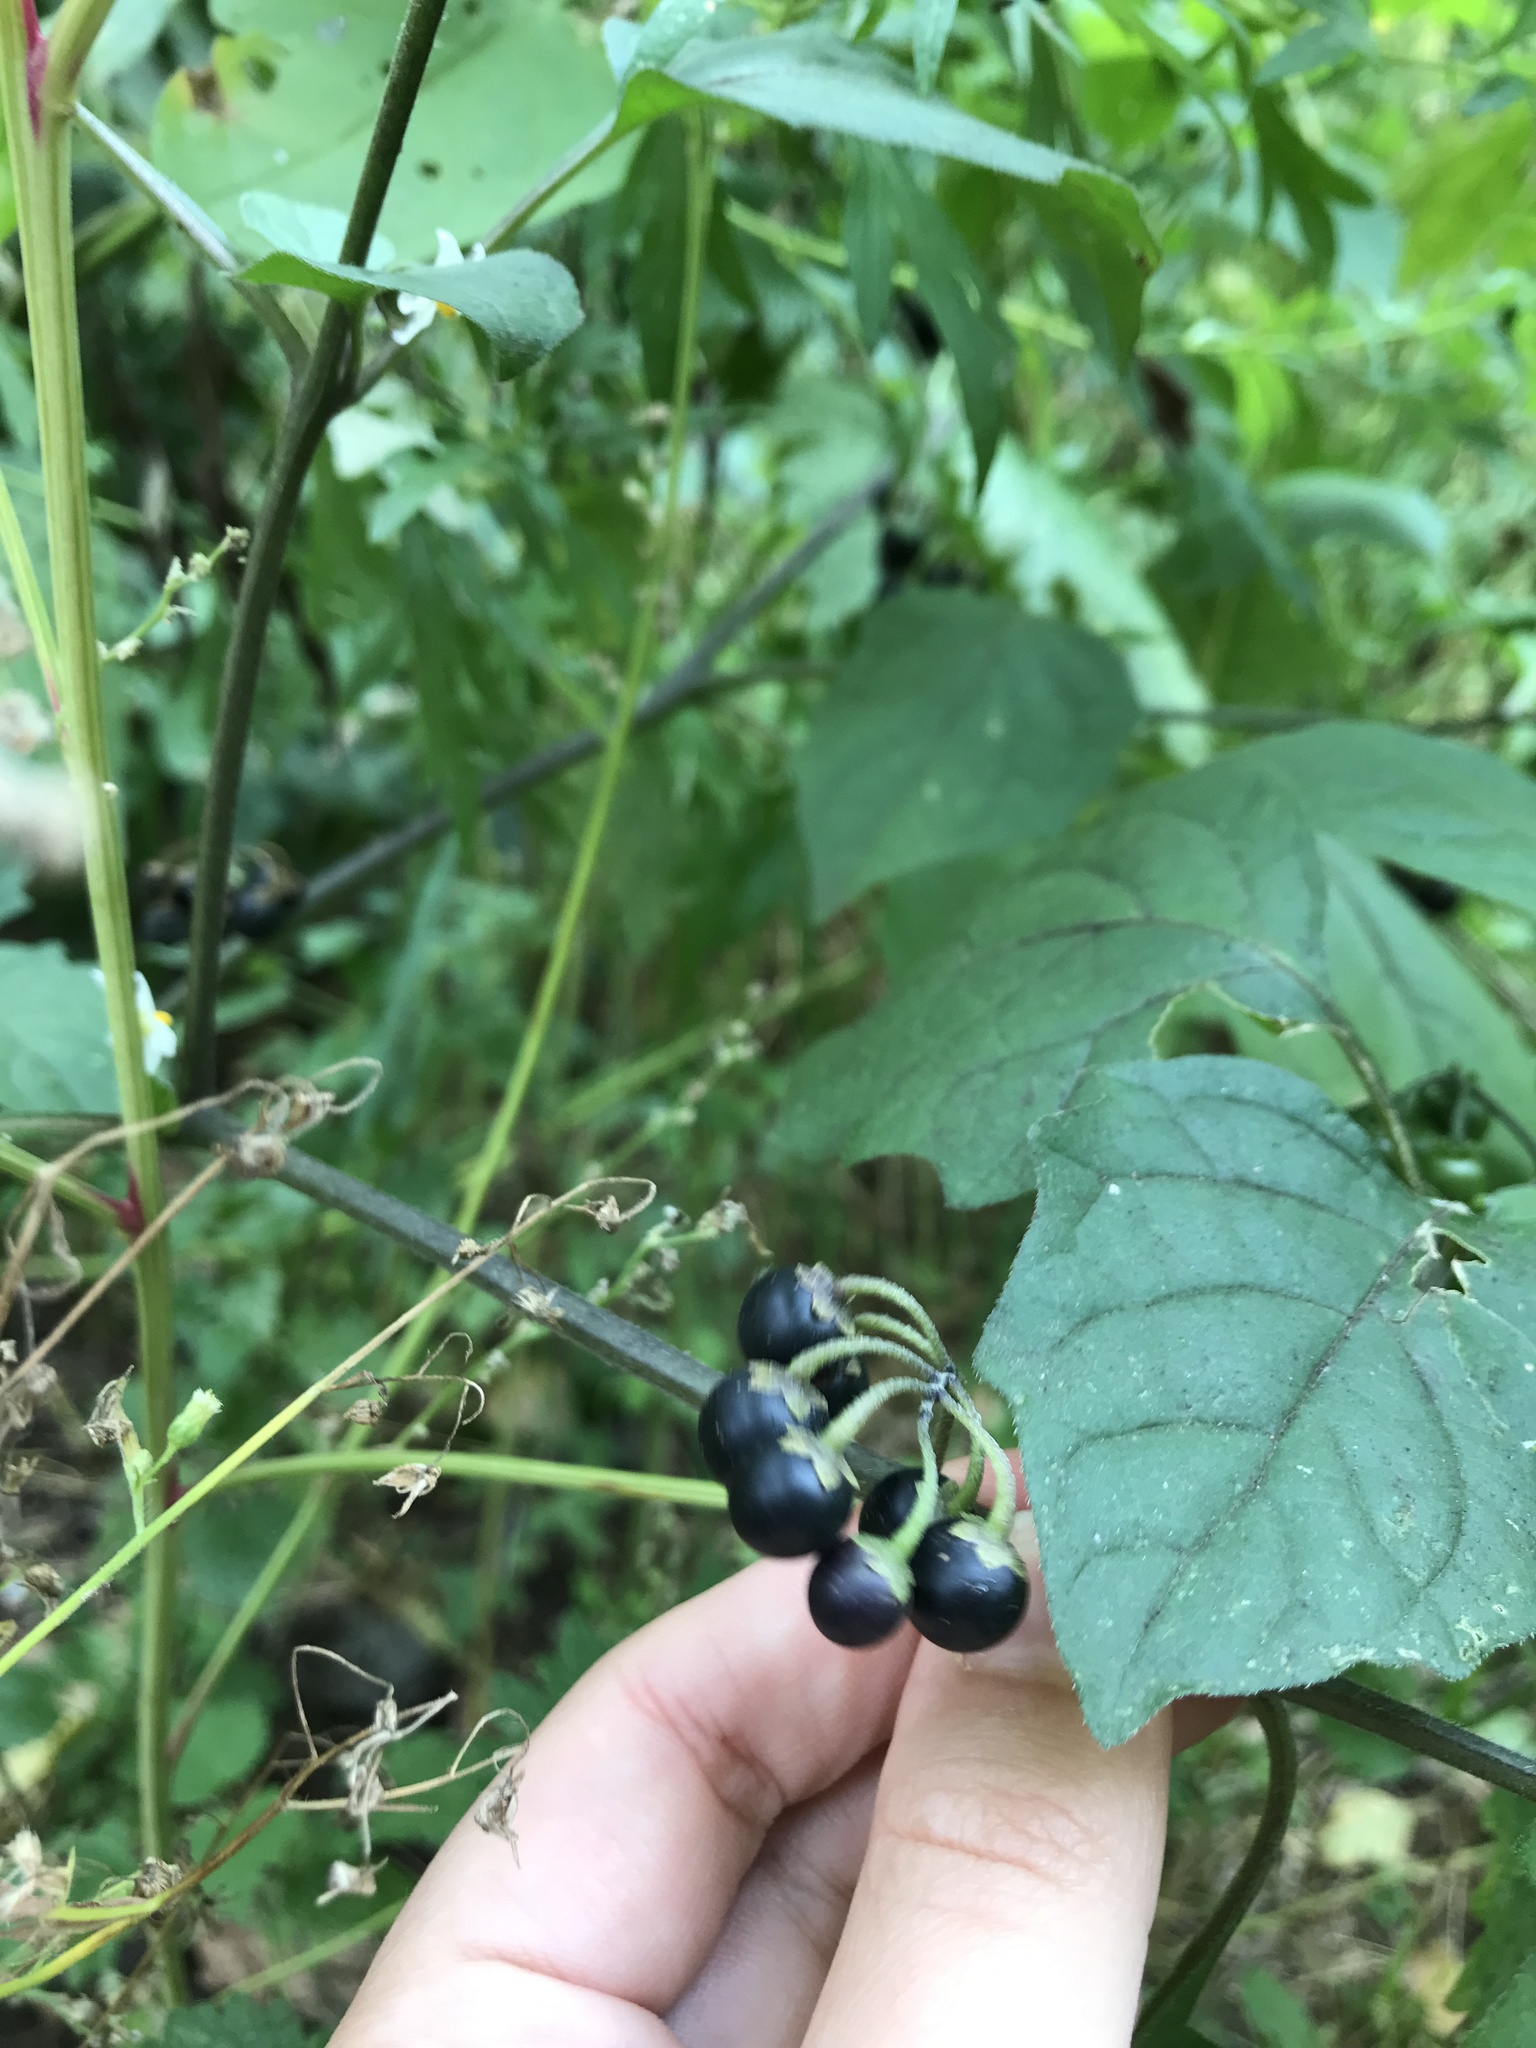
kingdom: Plantae
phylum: Tracheophyta
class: Magnoliopsida
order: Solanales
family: Solanaceae
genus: Solanum
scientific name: Solanum dulcamara
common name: Climbing nightshade
